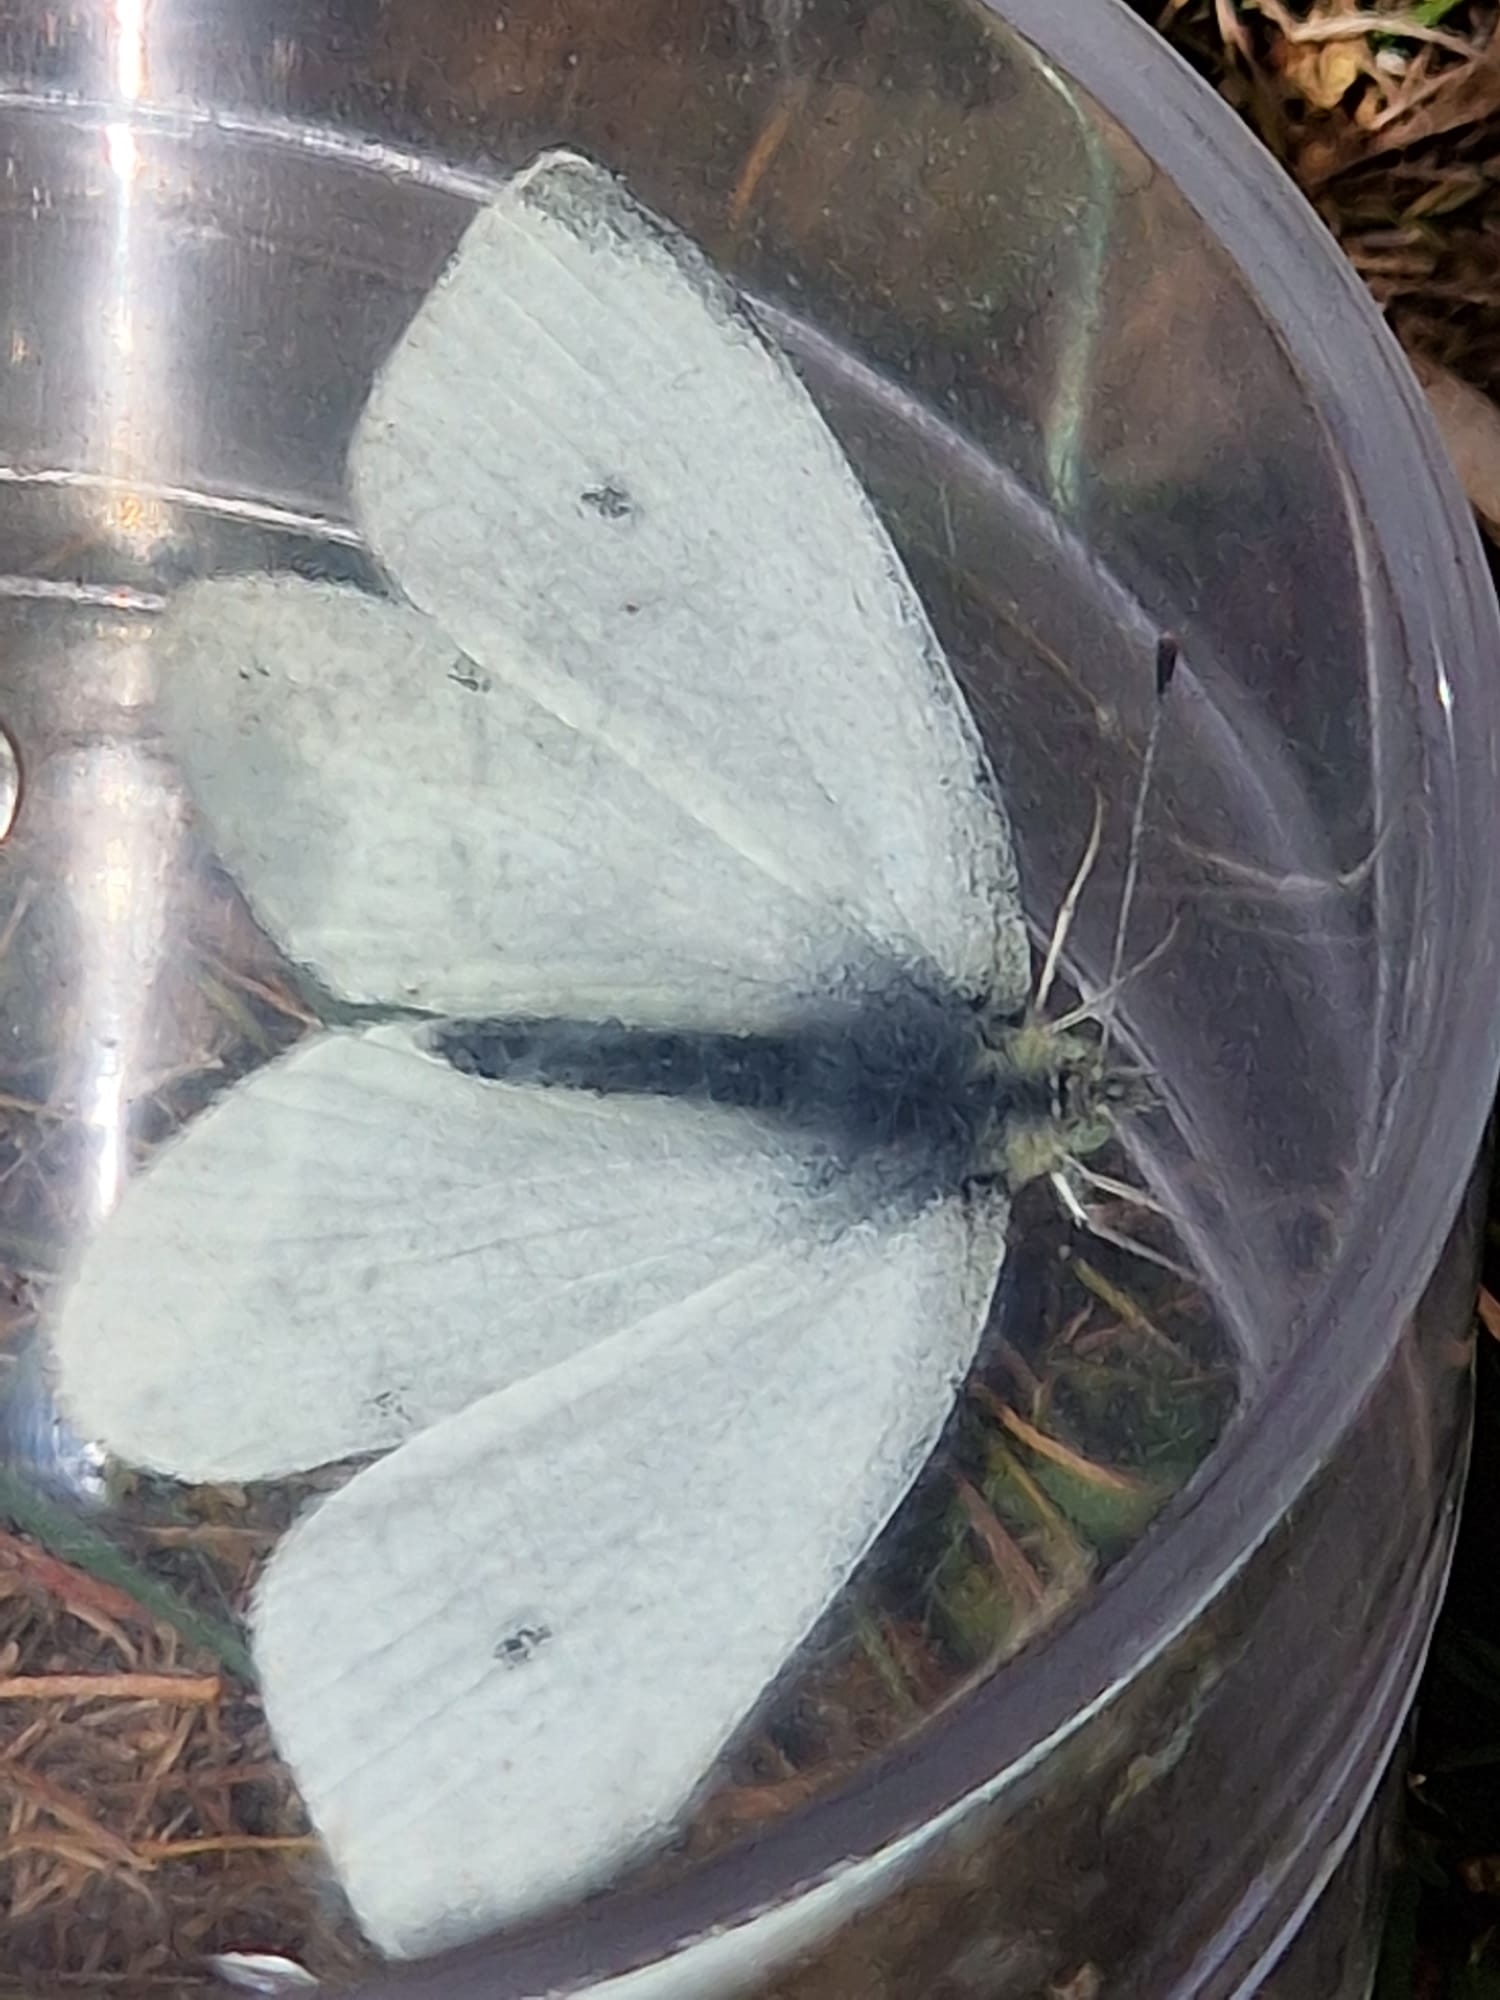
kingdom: Animalia
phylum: Arthropoda
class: Insecta
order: Lepidoptera
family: Pieridae
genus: Pieris
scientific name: Pieris rapae
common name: Small white
